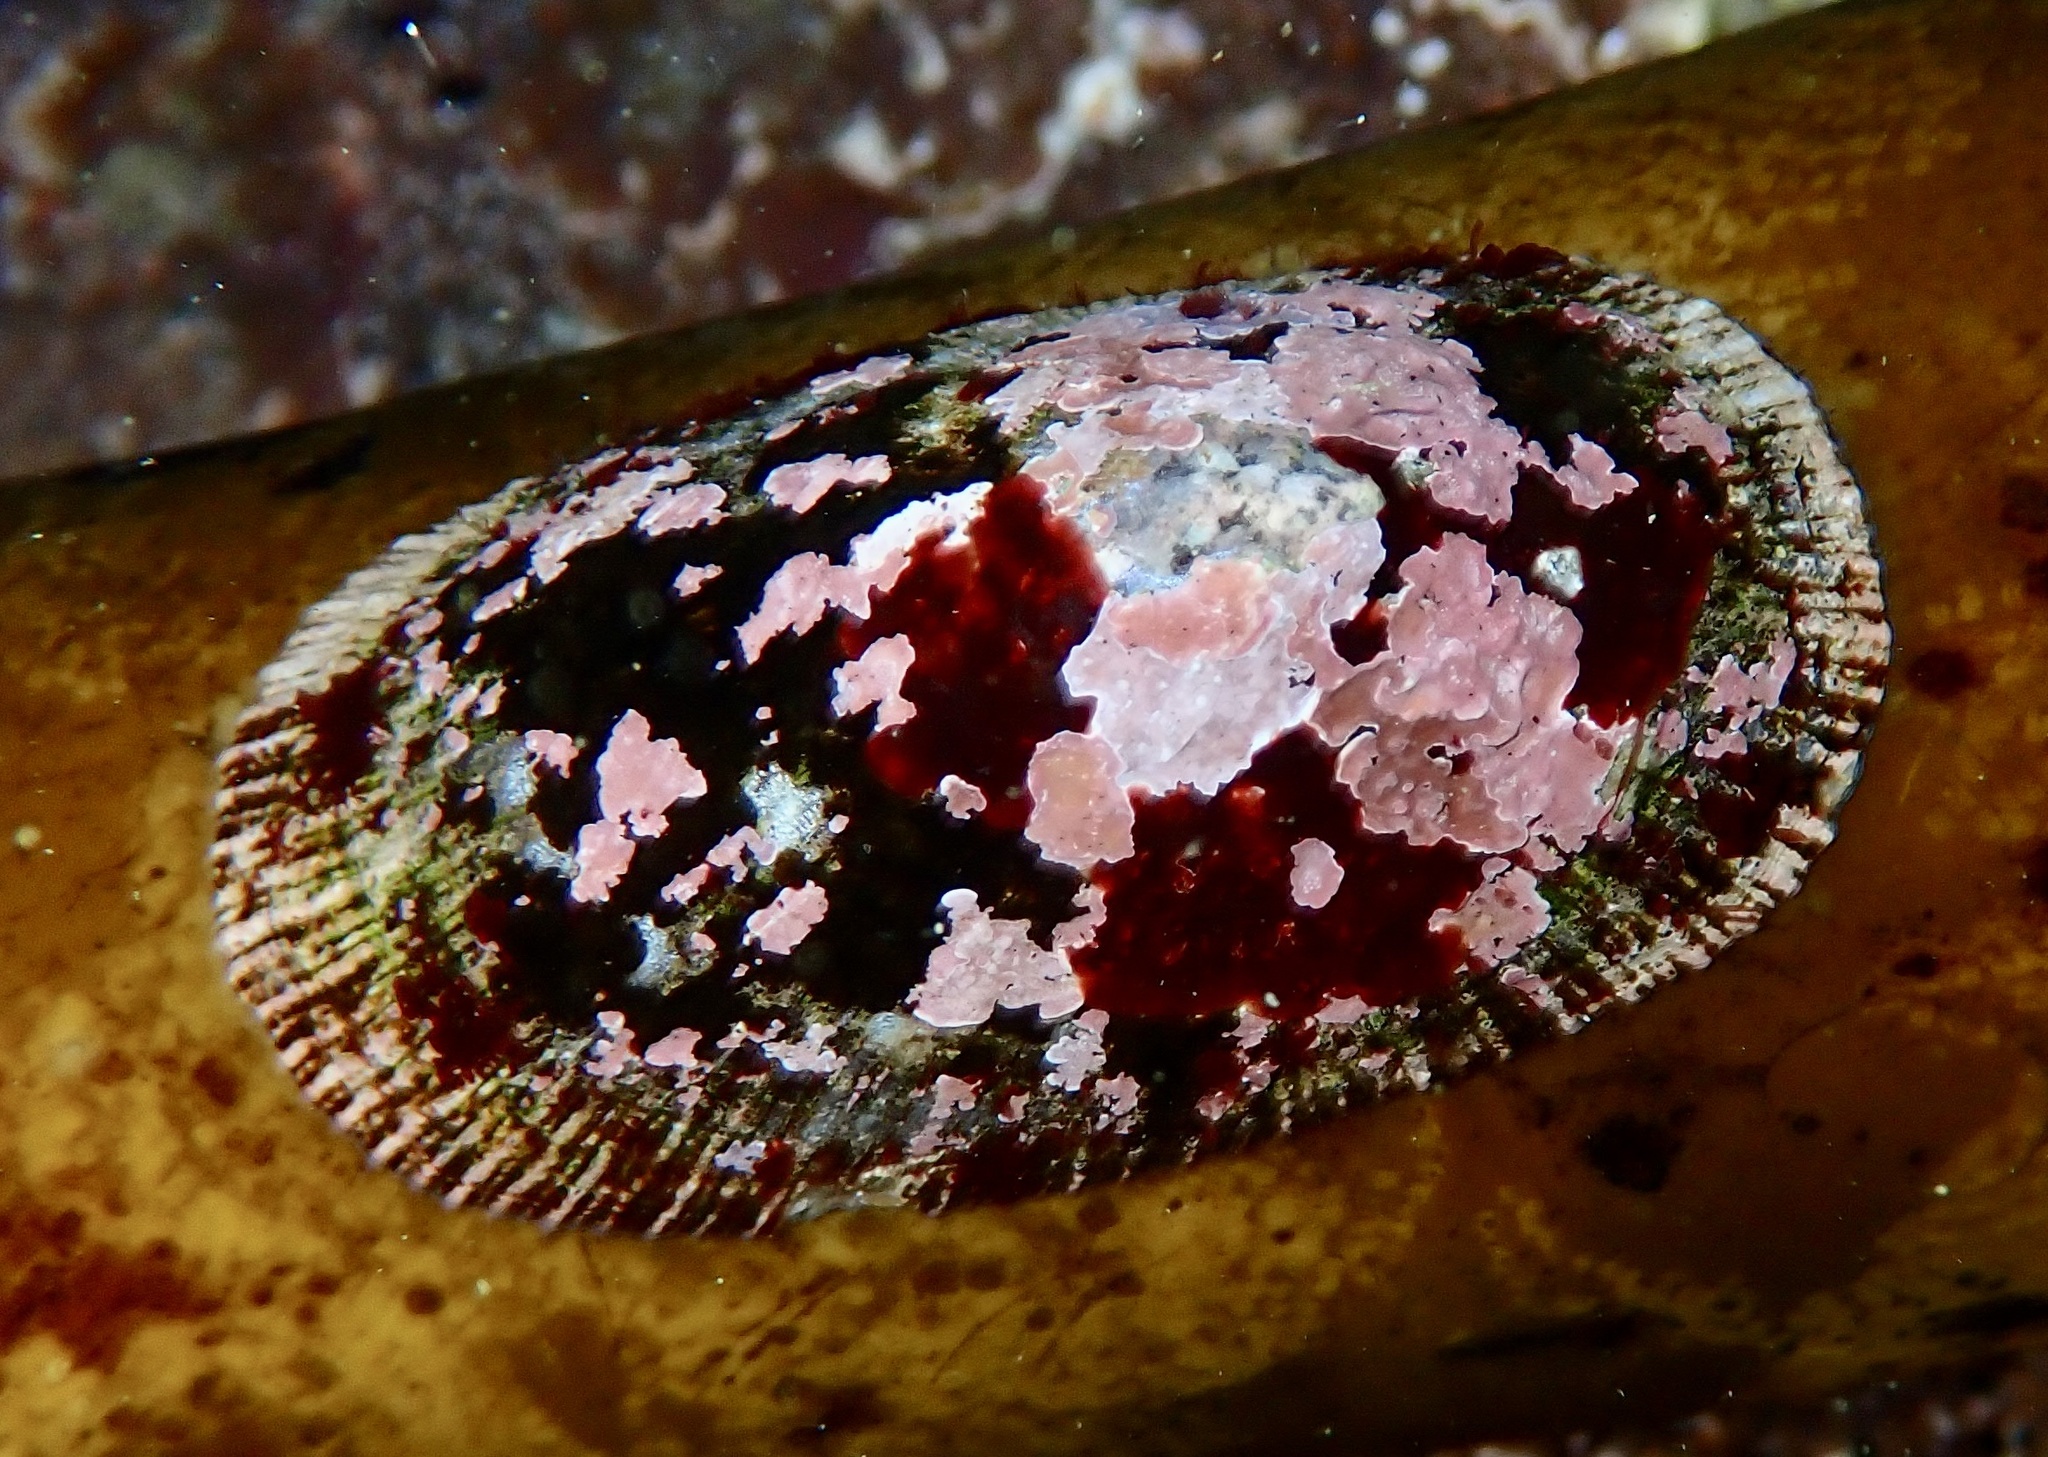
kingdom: Animalia
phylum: Mollusca
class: Gastropoda
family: Patellidae
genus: Cymbula
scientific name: Cymbula compressa
